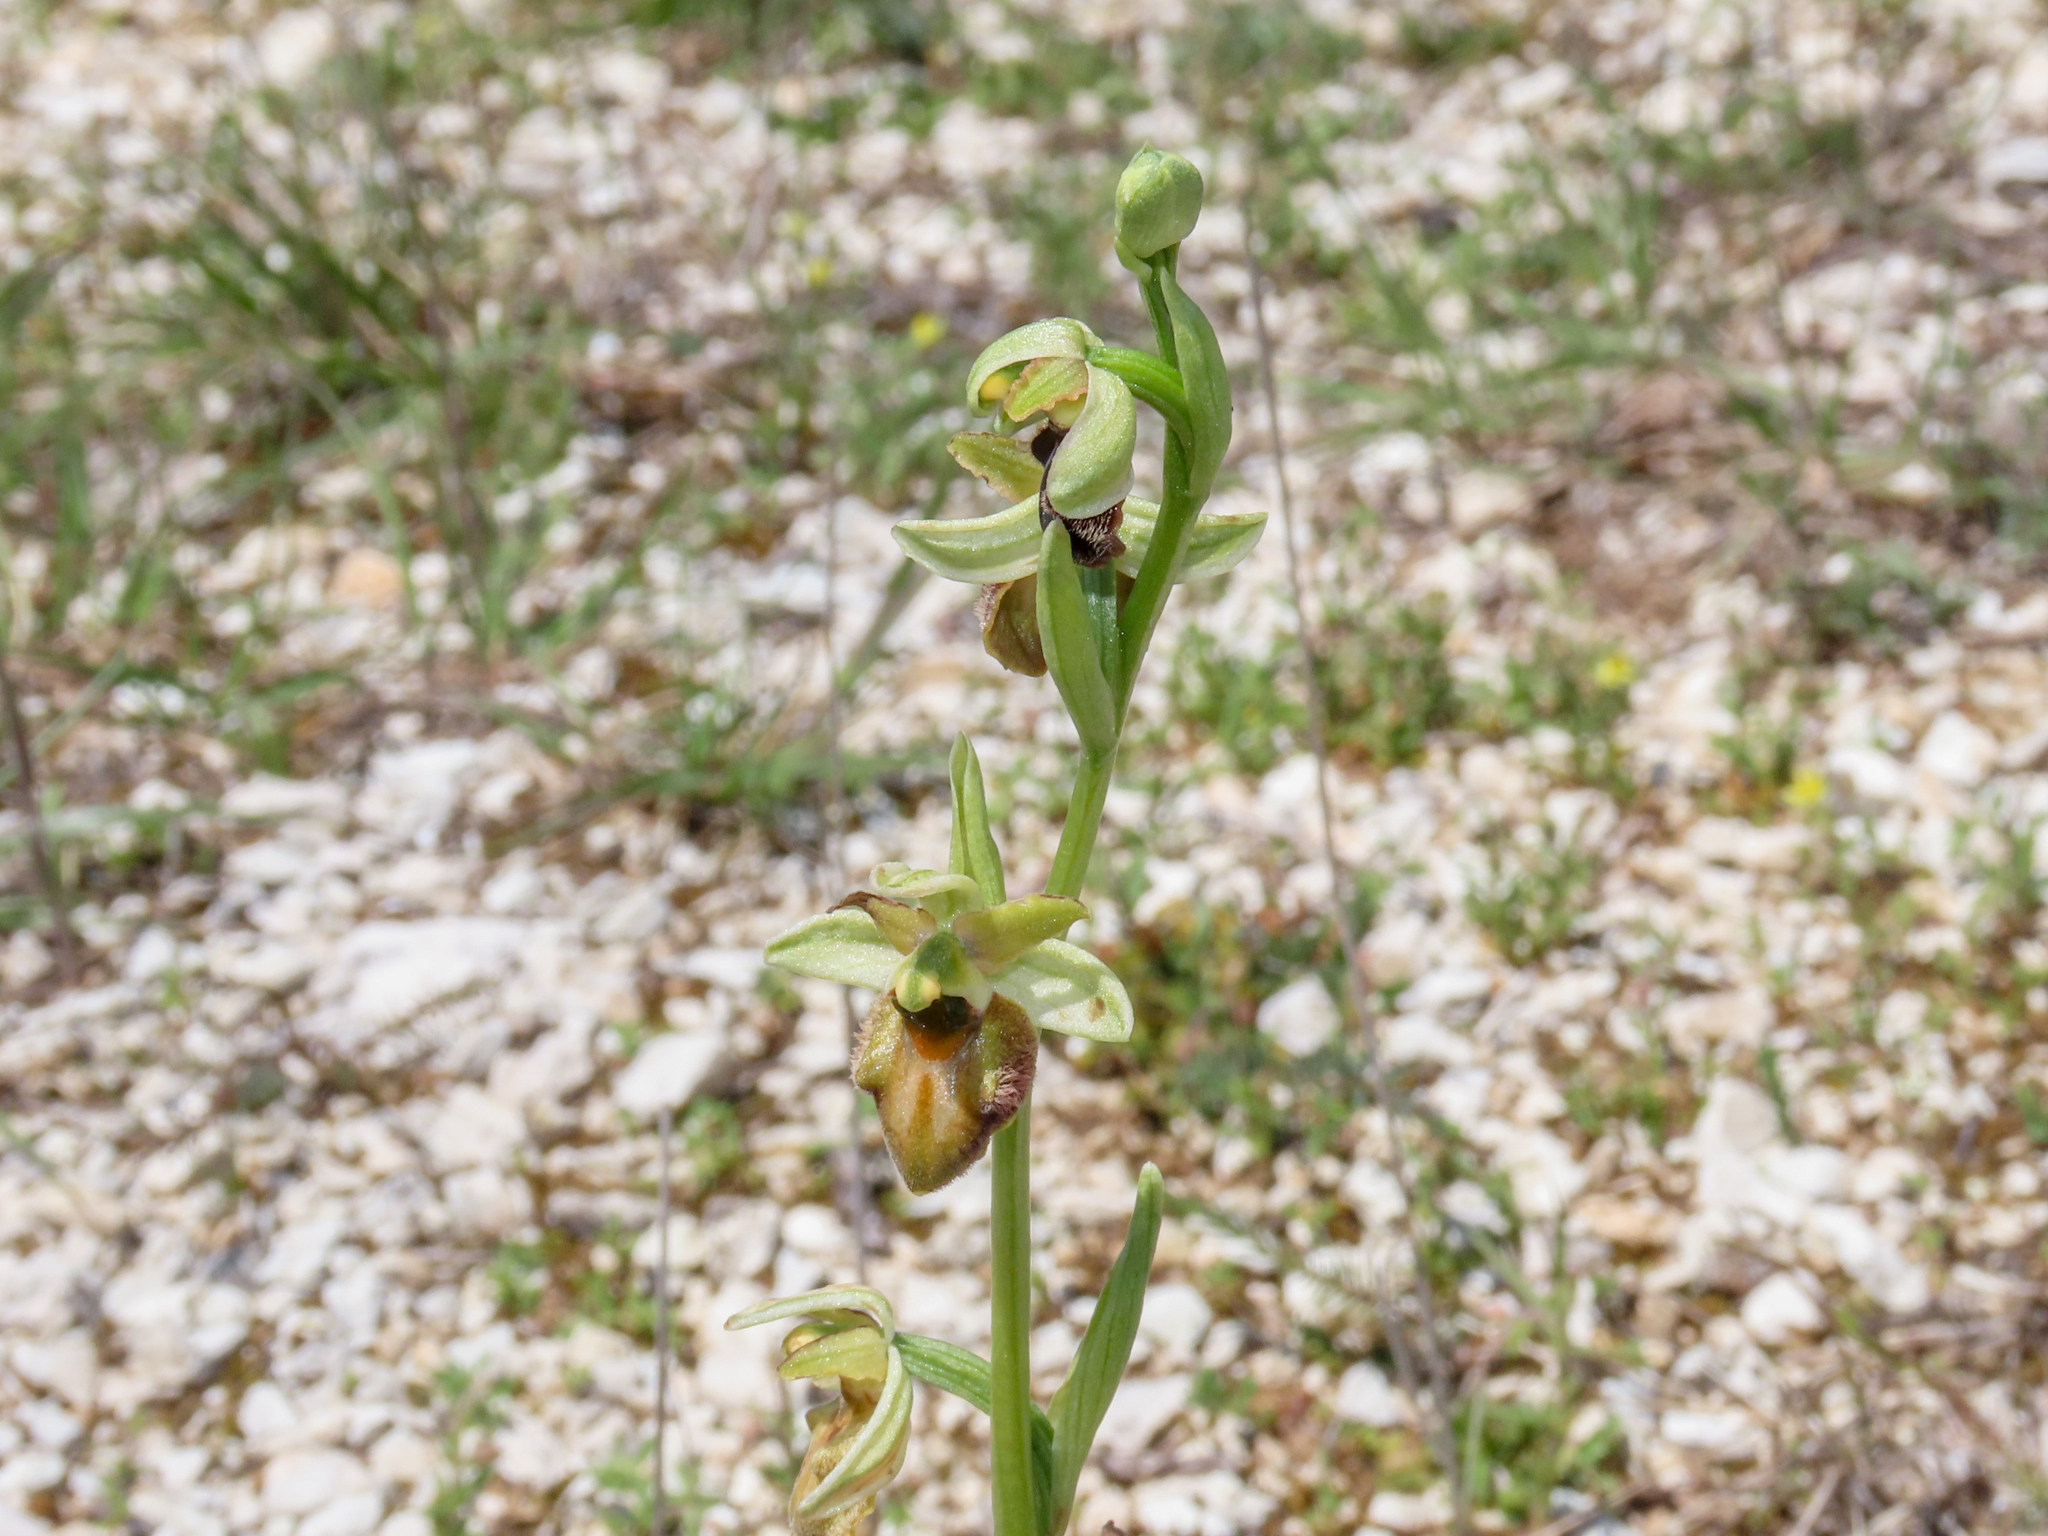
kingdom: Plantae
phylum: Tracheophyta
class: Liliopsida
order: Asparagales
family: Orchidaceae
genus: Ophrys
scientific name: Ophrys sphegodes
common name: Early spider-orchid
